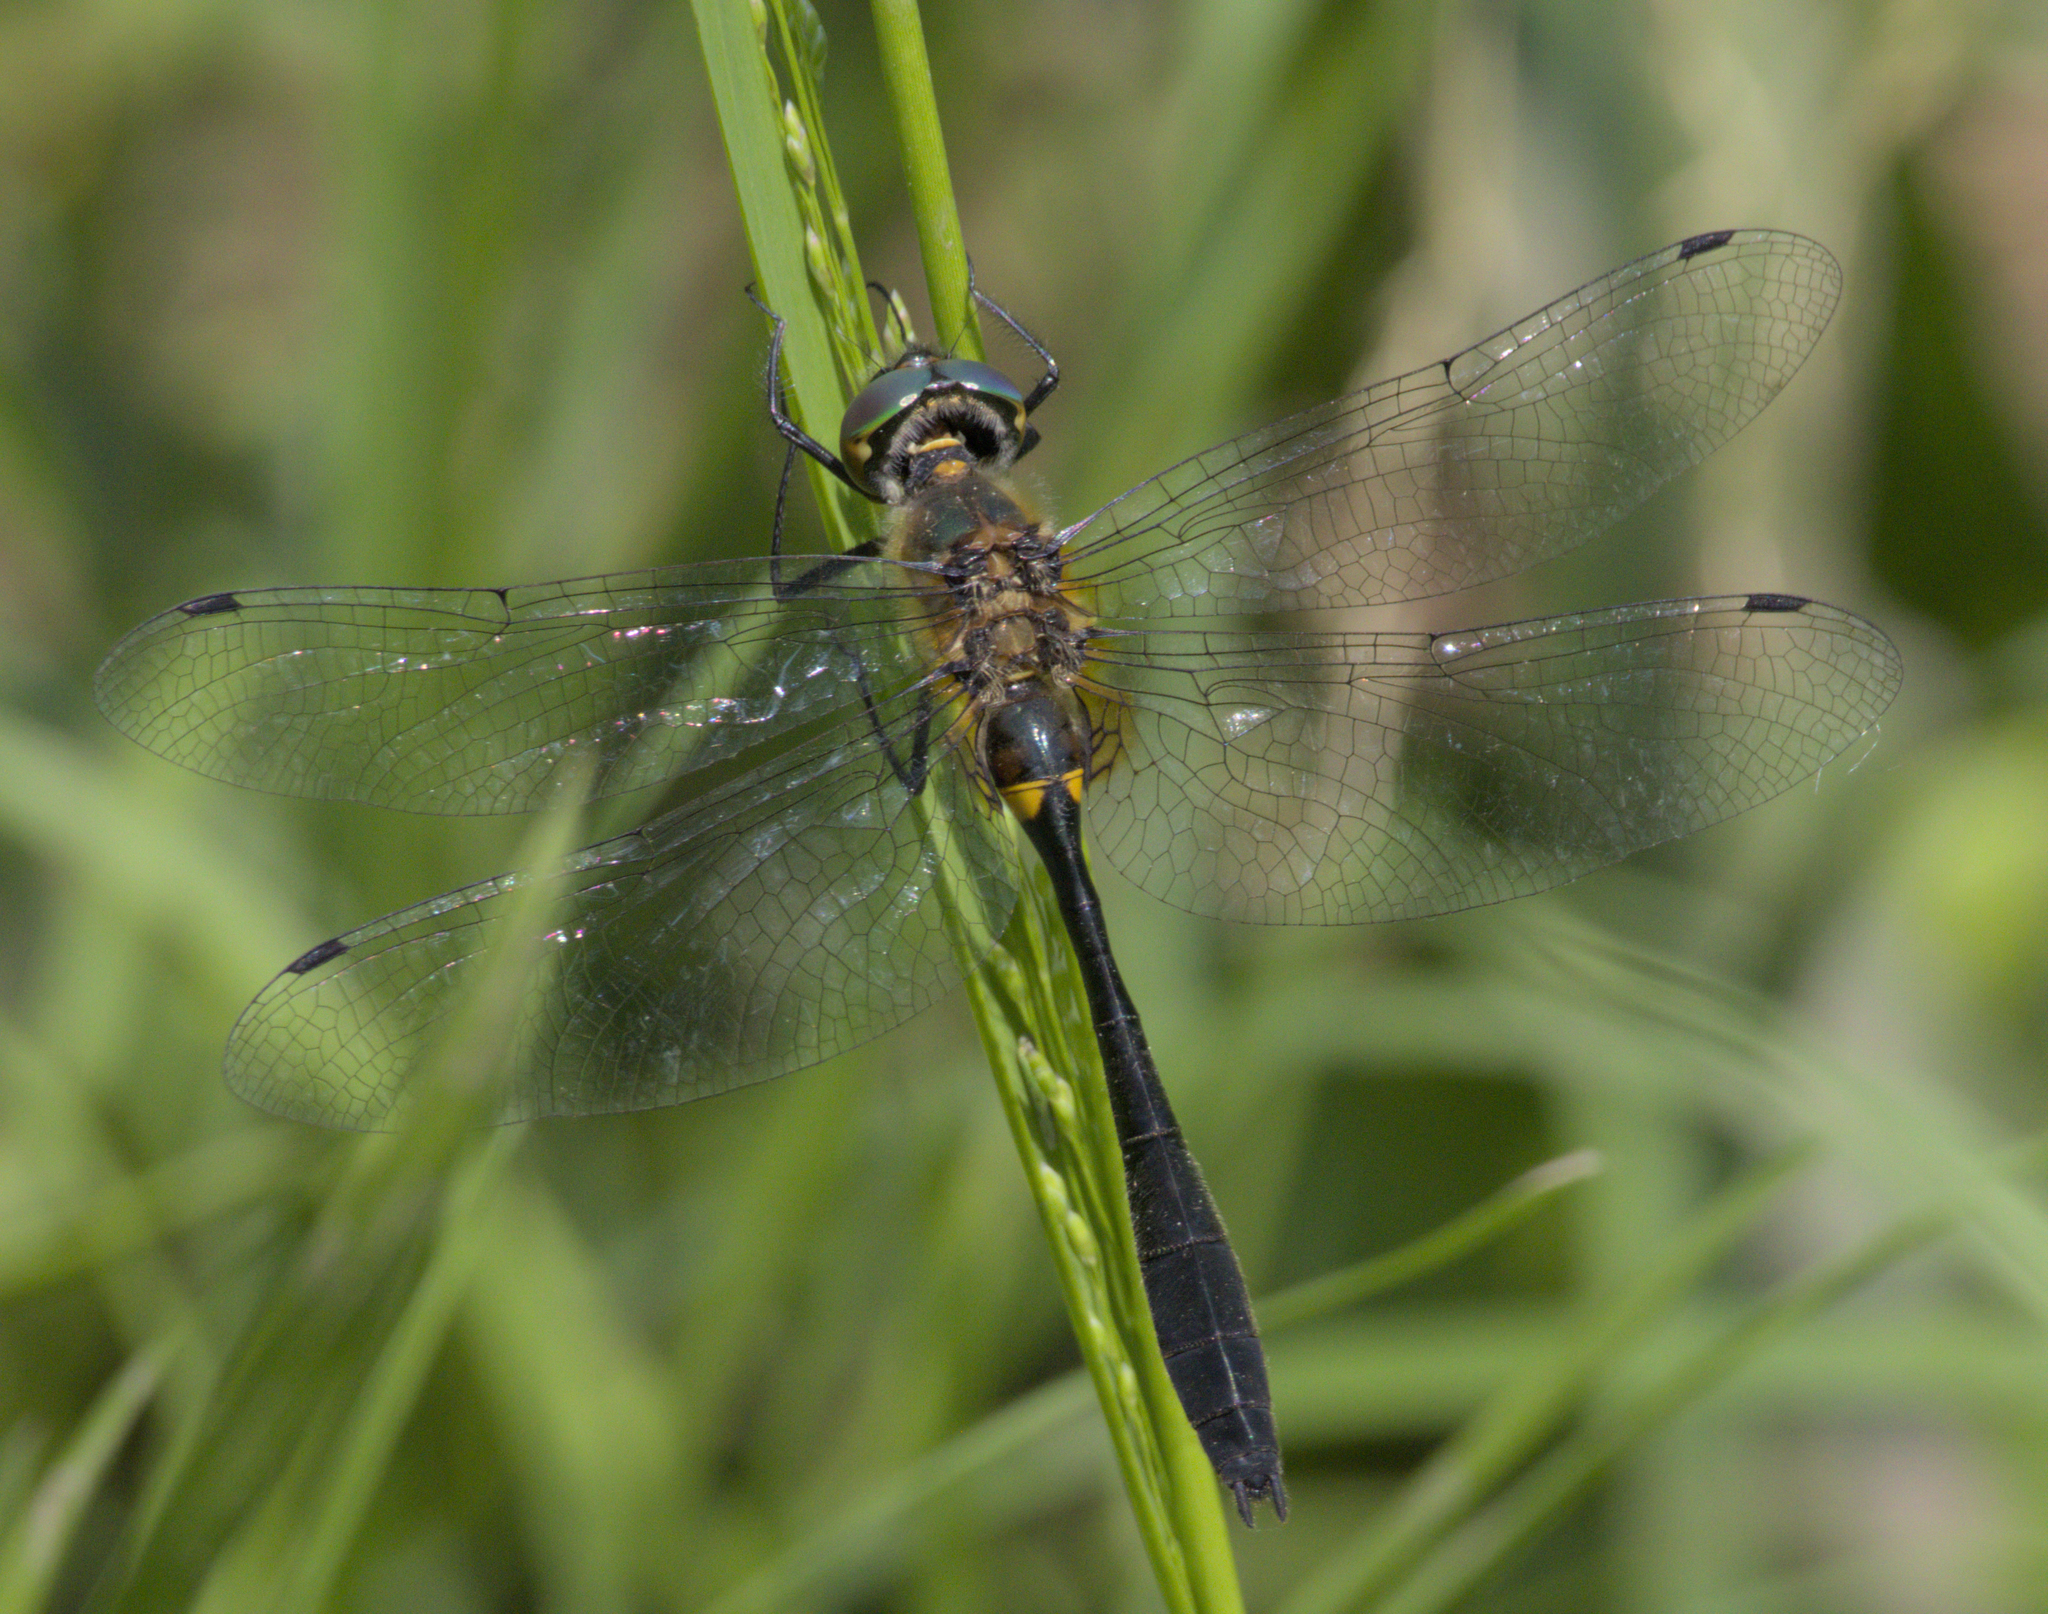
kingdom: Animalia
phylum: Arthropoda
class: Insecta
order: Odonata
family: Corduliidae
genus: Dorocordulia
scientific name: Dorocordulia libera
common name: Racket-tailed emerald
